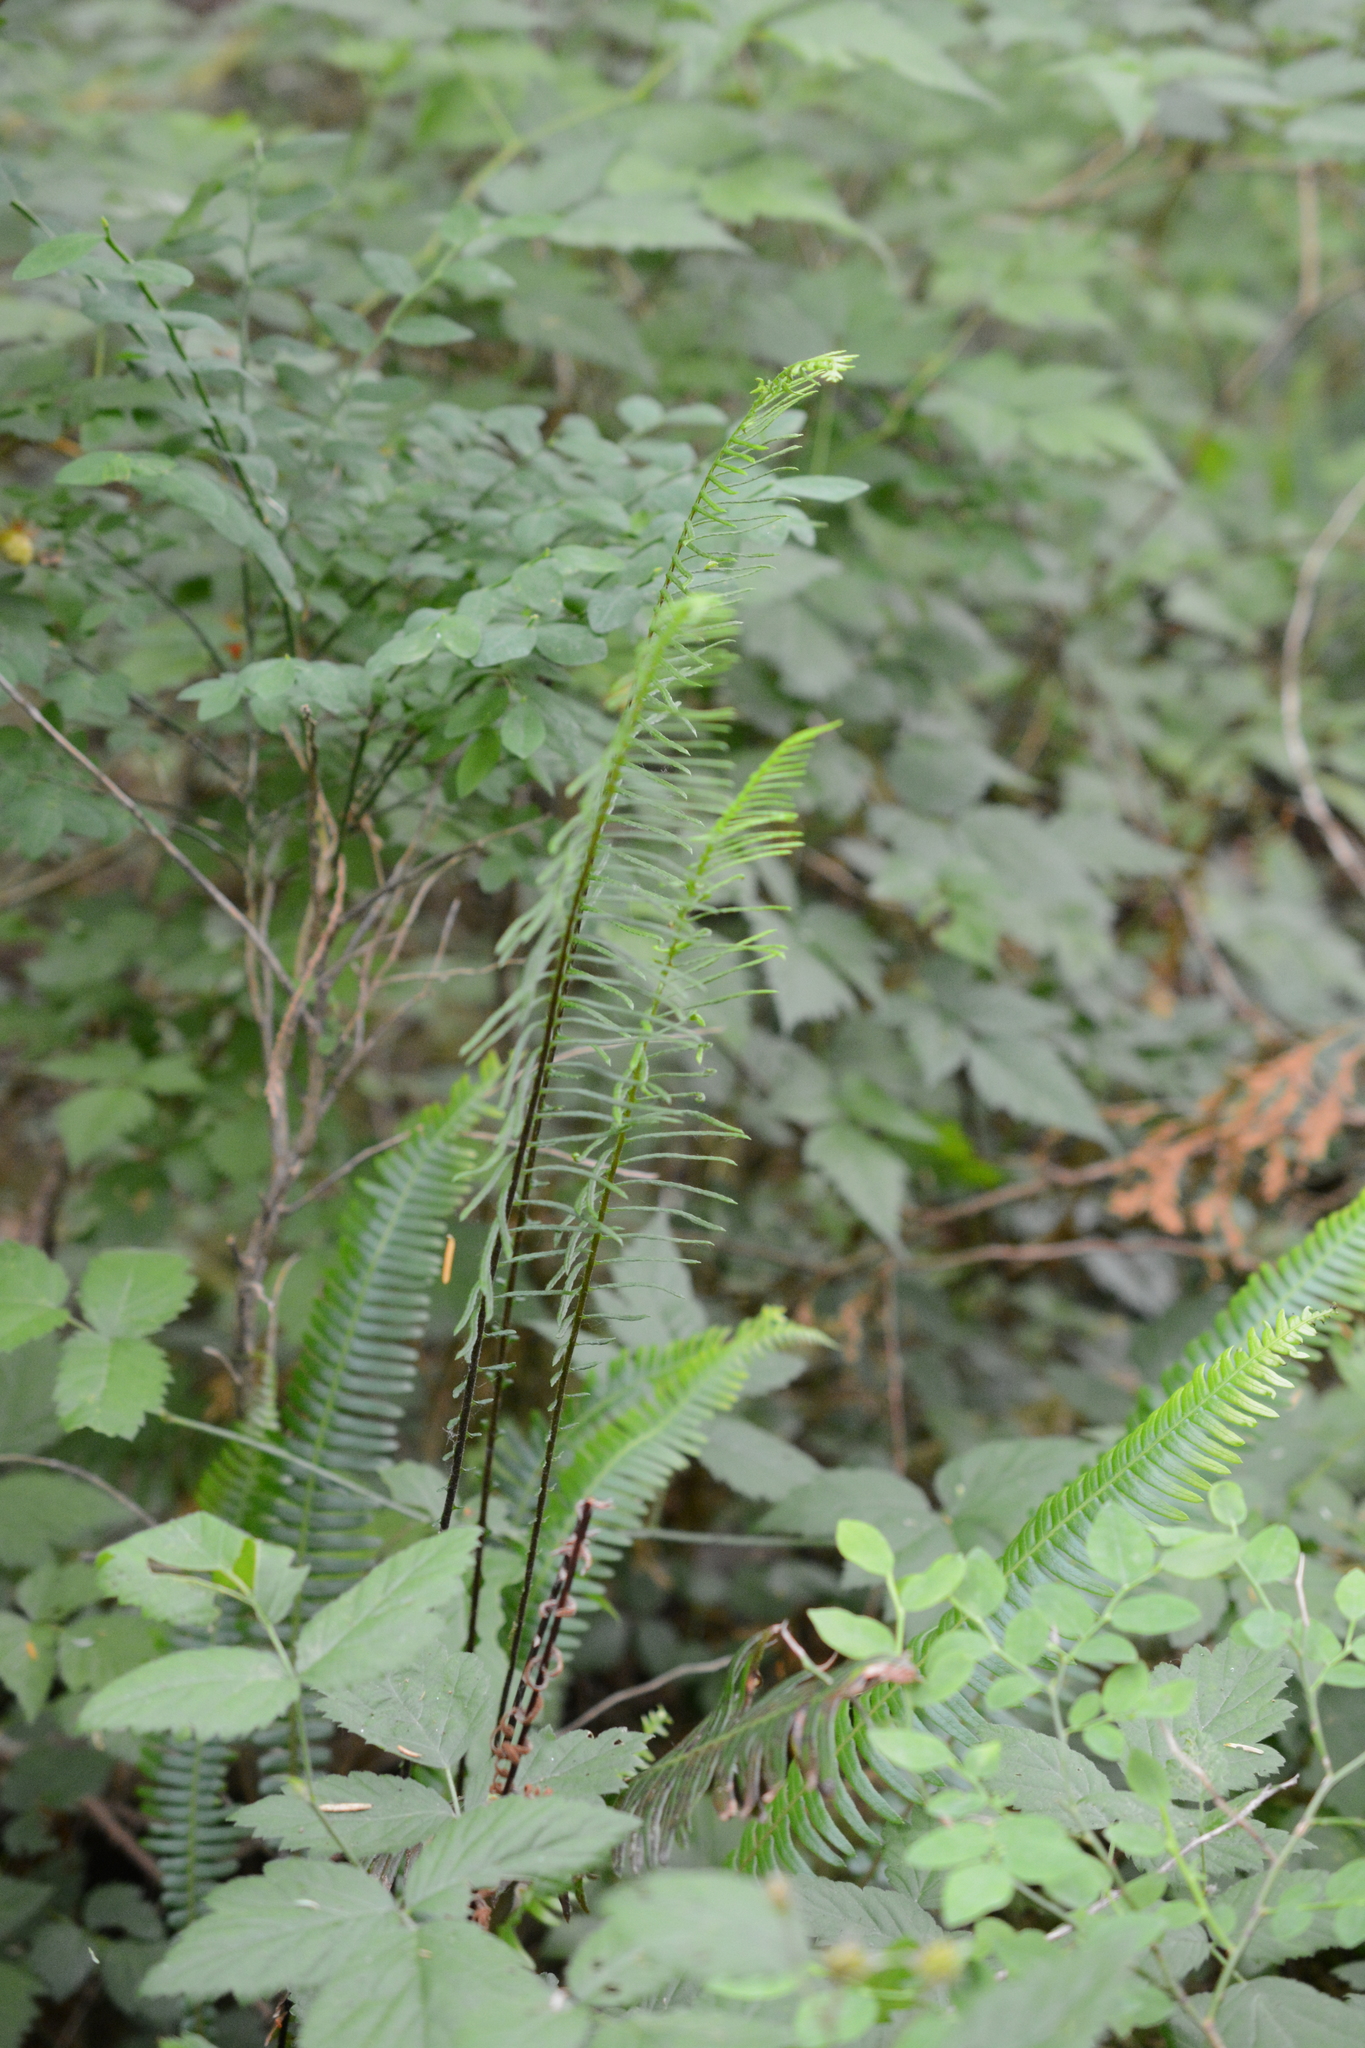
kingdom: Plantae
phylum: Tracheophyta
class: Polypodiopsida
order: Polypodiales
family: Blechnaceae
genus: Struthiopteris
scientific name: Struthiopteris spicant
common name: Deer fern
